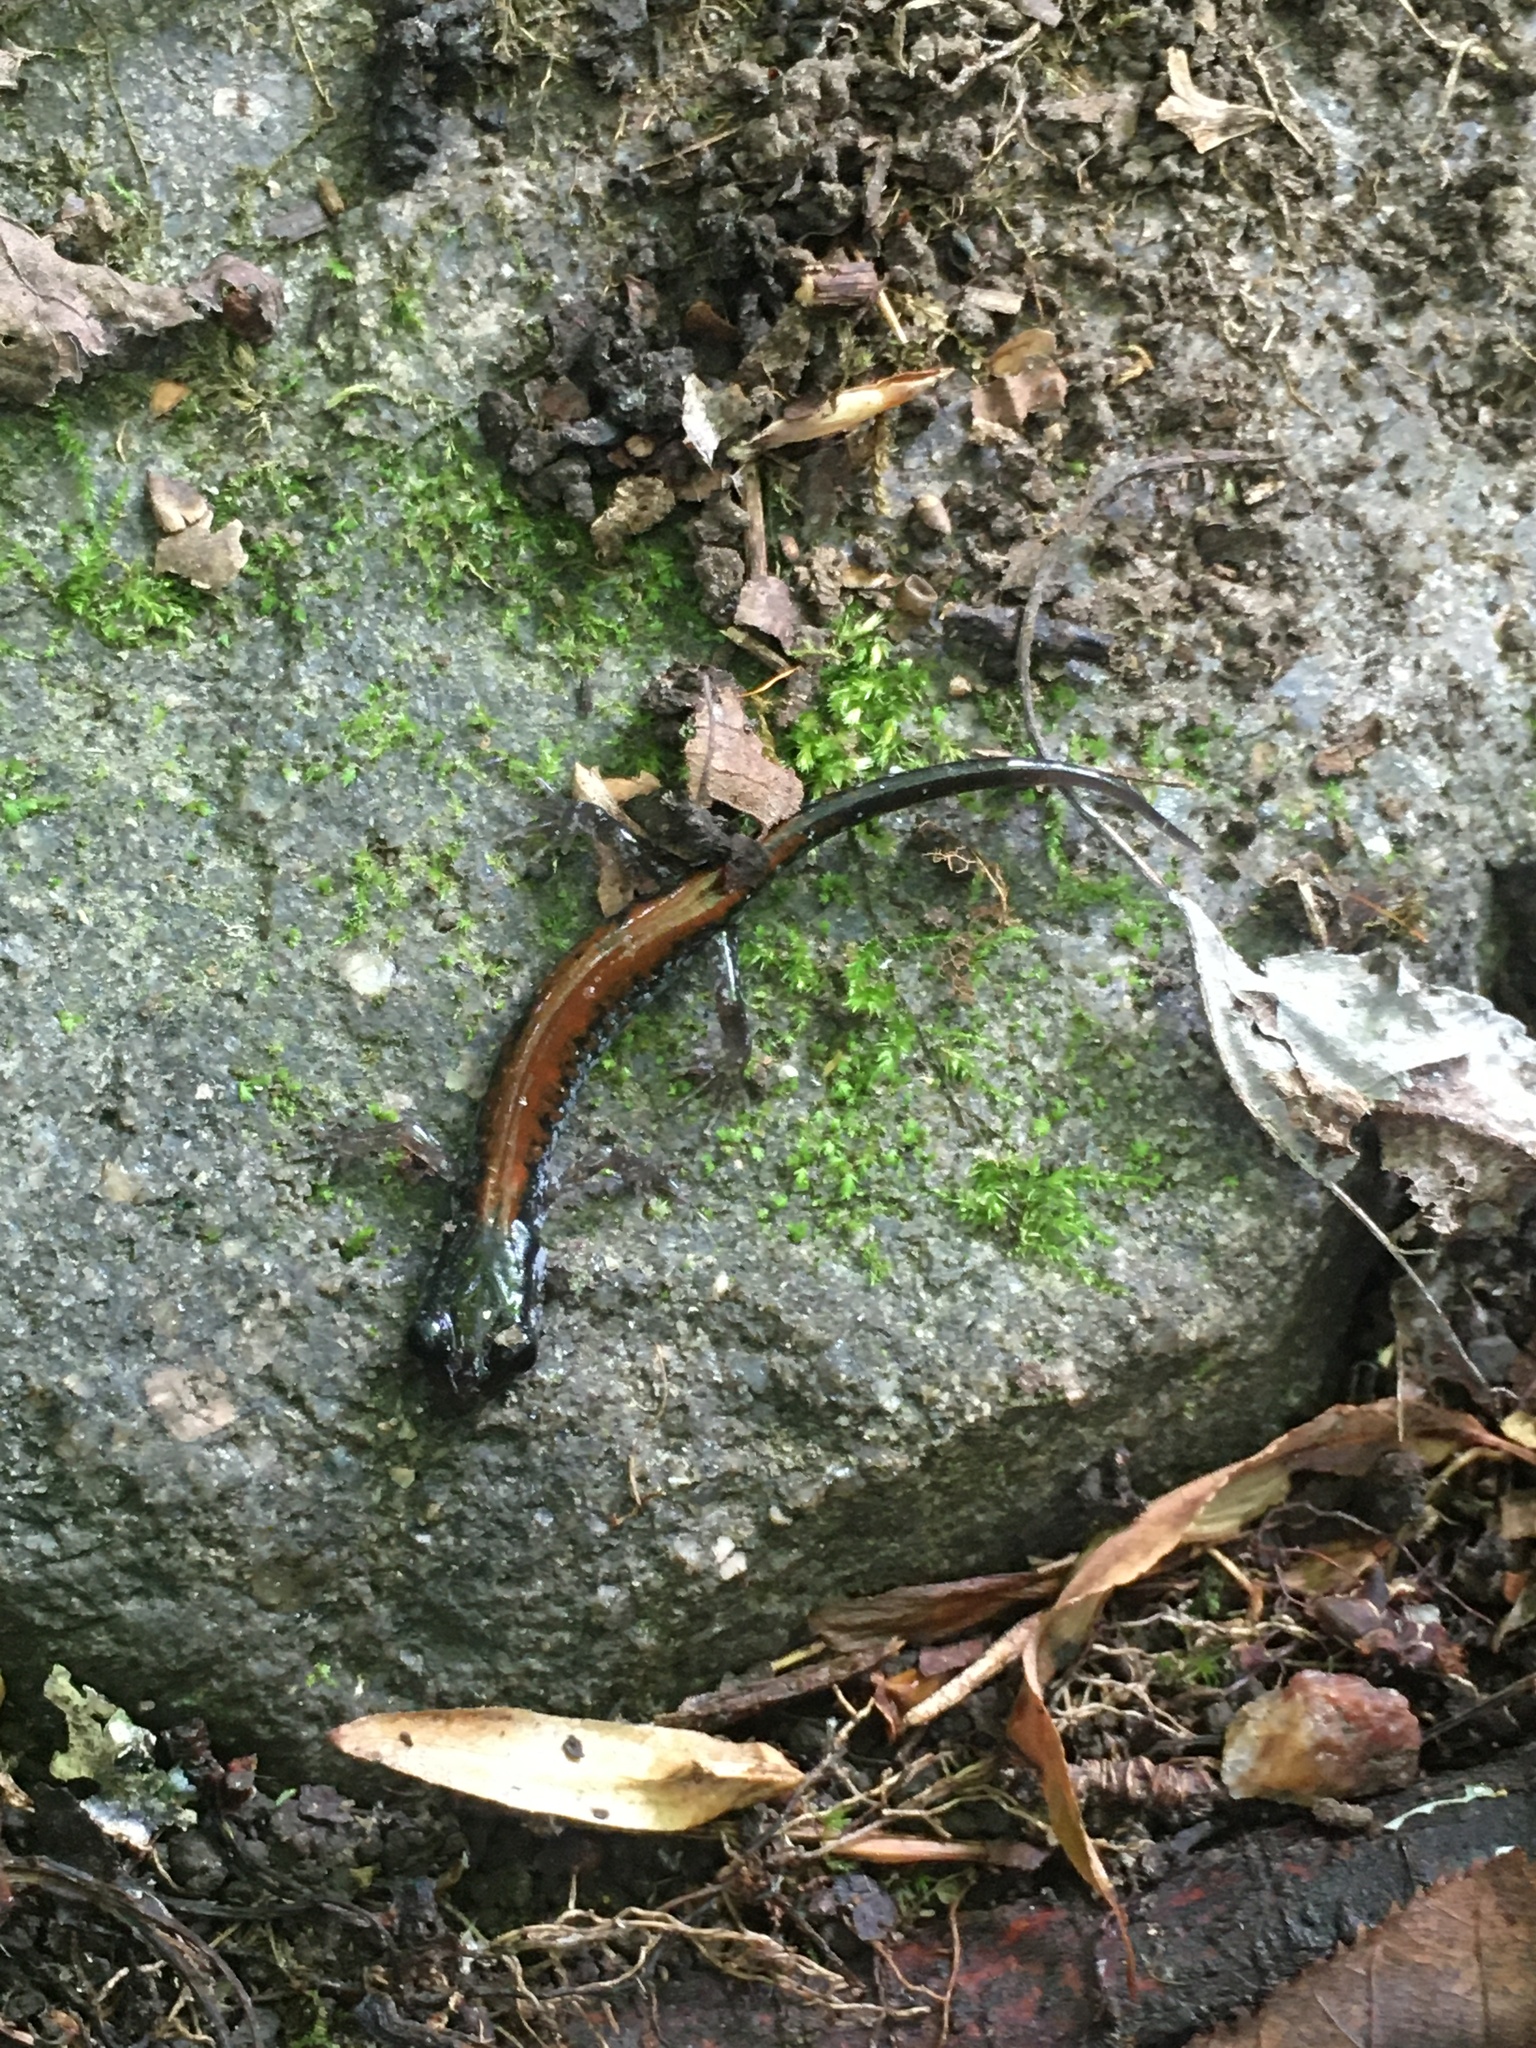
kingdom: Animalia
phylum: Chordata
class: Amphibia
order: Caudata
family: Plethodontidae
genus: Plethodon
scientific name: Plethodon yonahlossee
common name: Yonahlossee salamander
